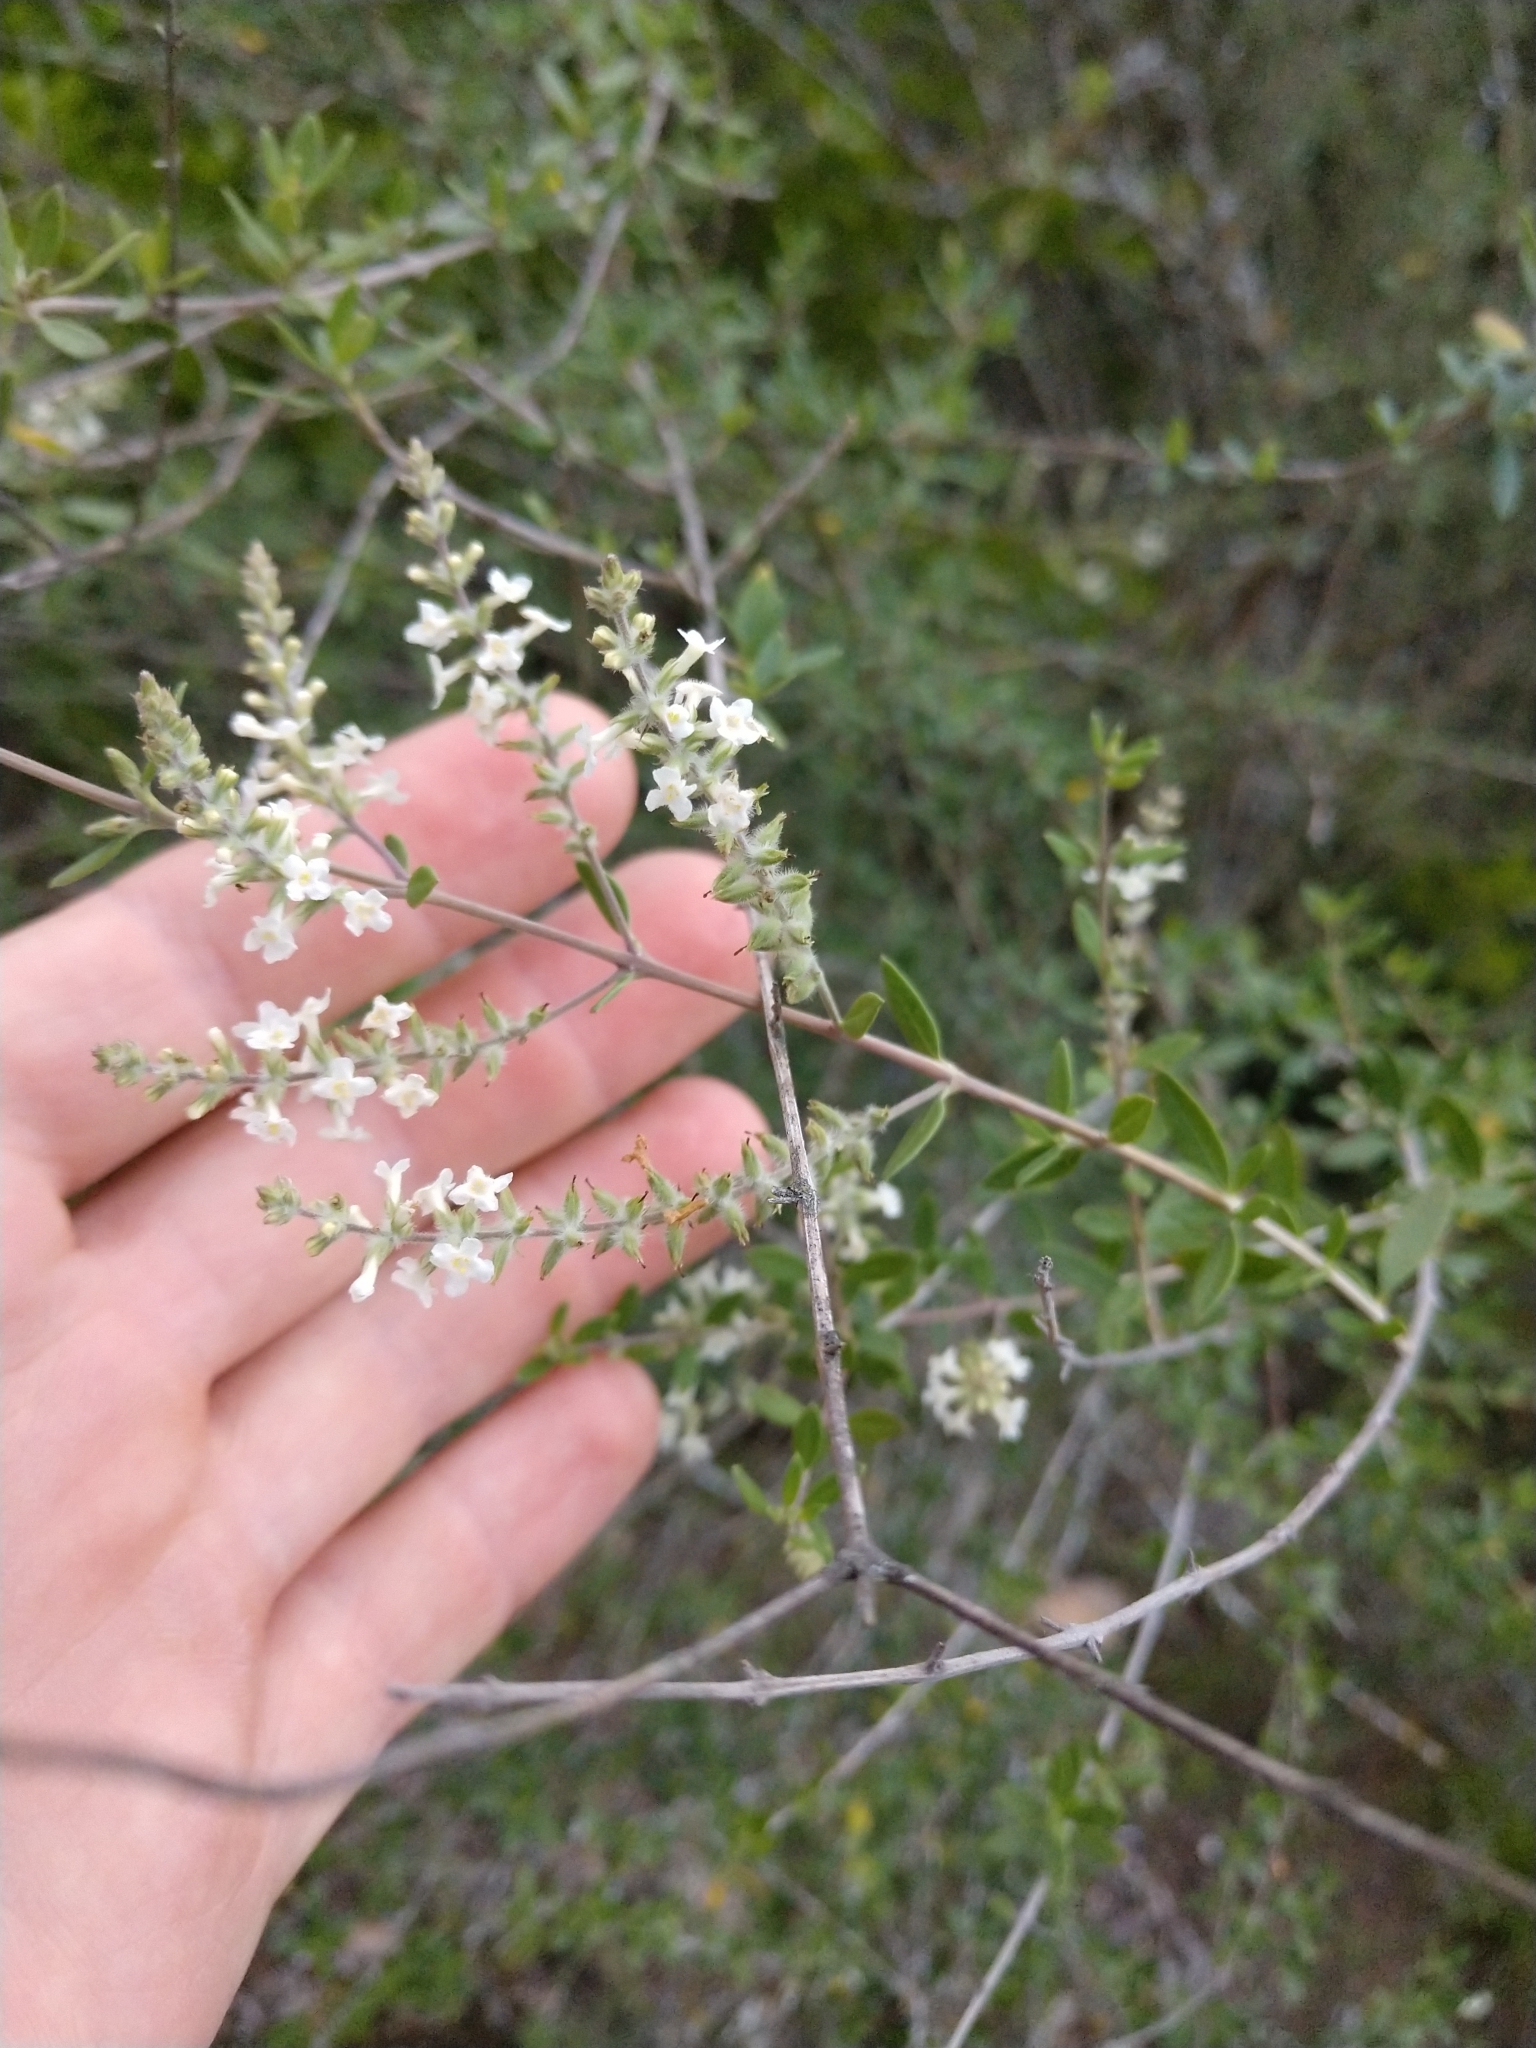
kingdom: Plantae
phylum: Tracheophyta
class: Magnoliopsida
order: Lamiales
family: Verbenaceae
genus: Aloysia
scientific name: Aloysia gratissima
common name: Common bee-brush
